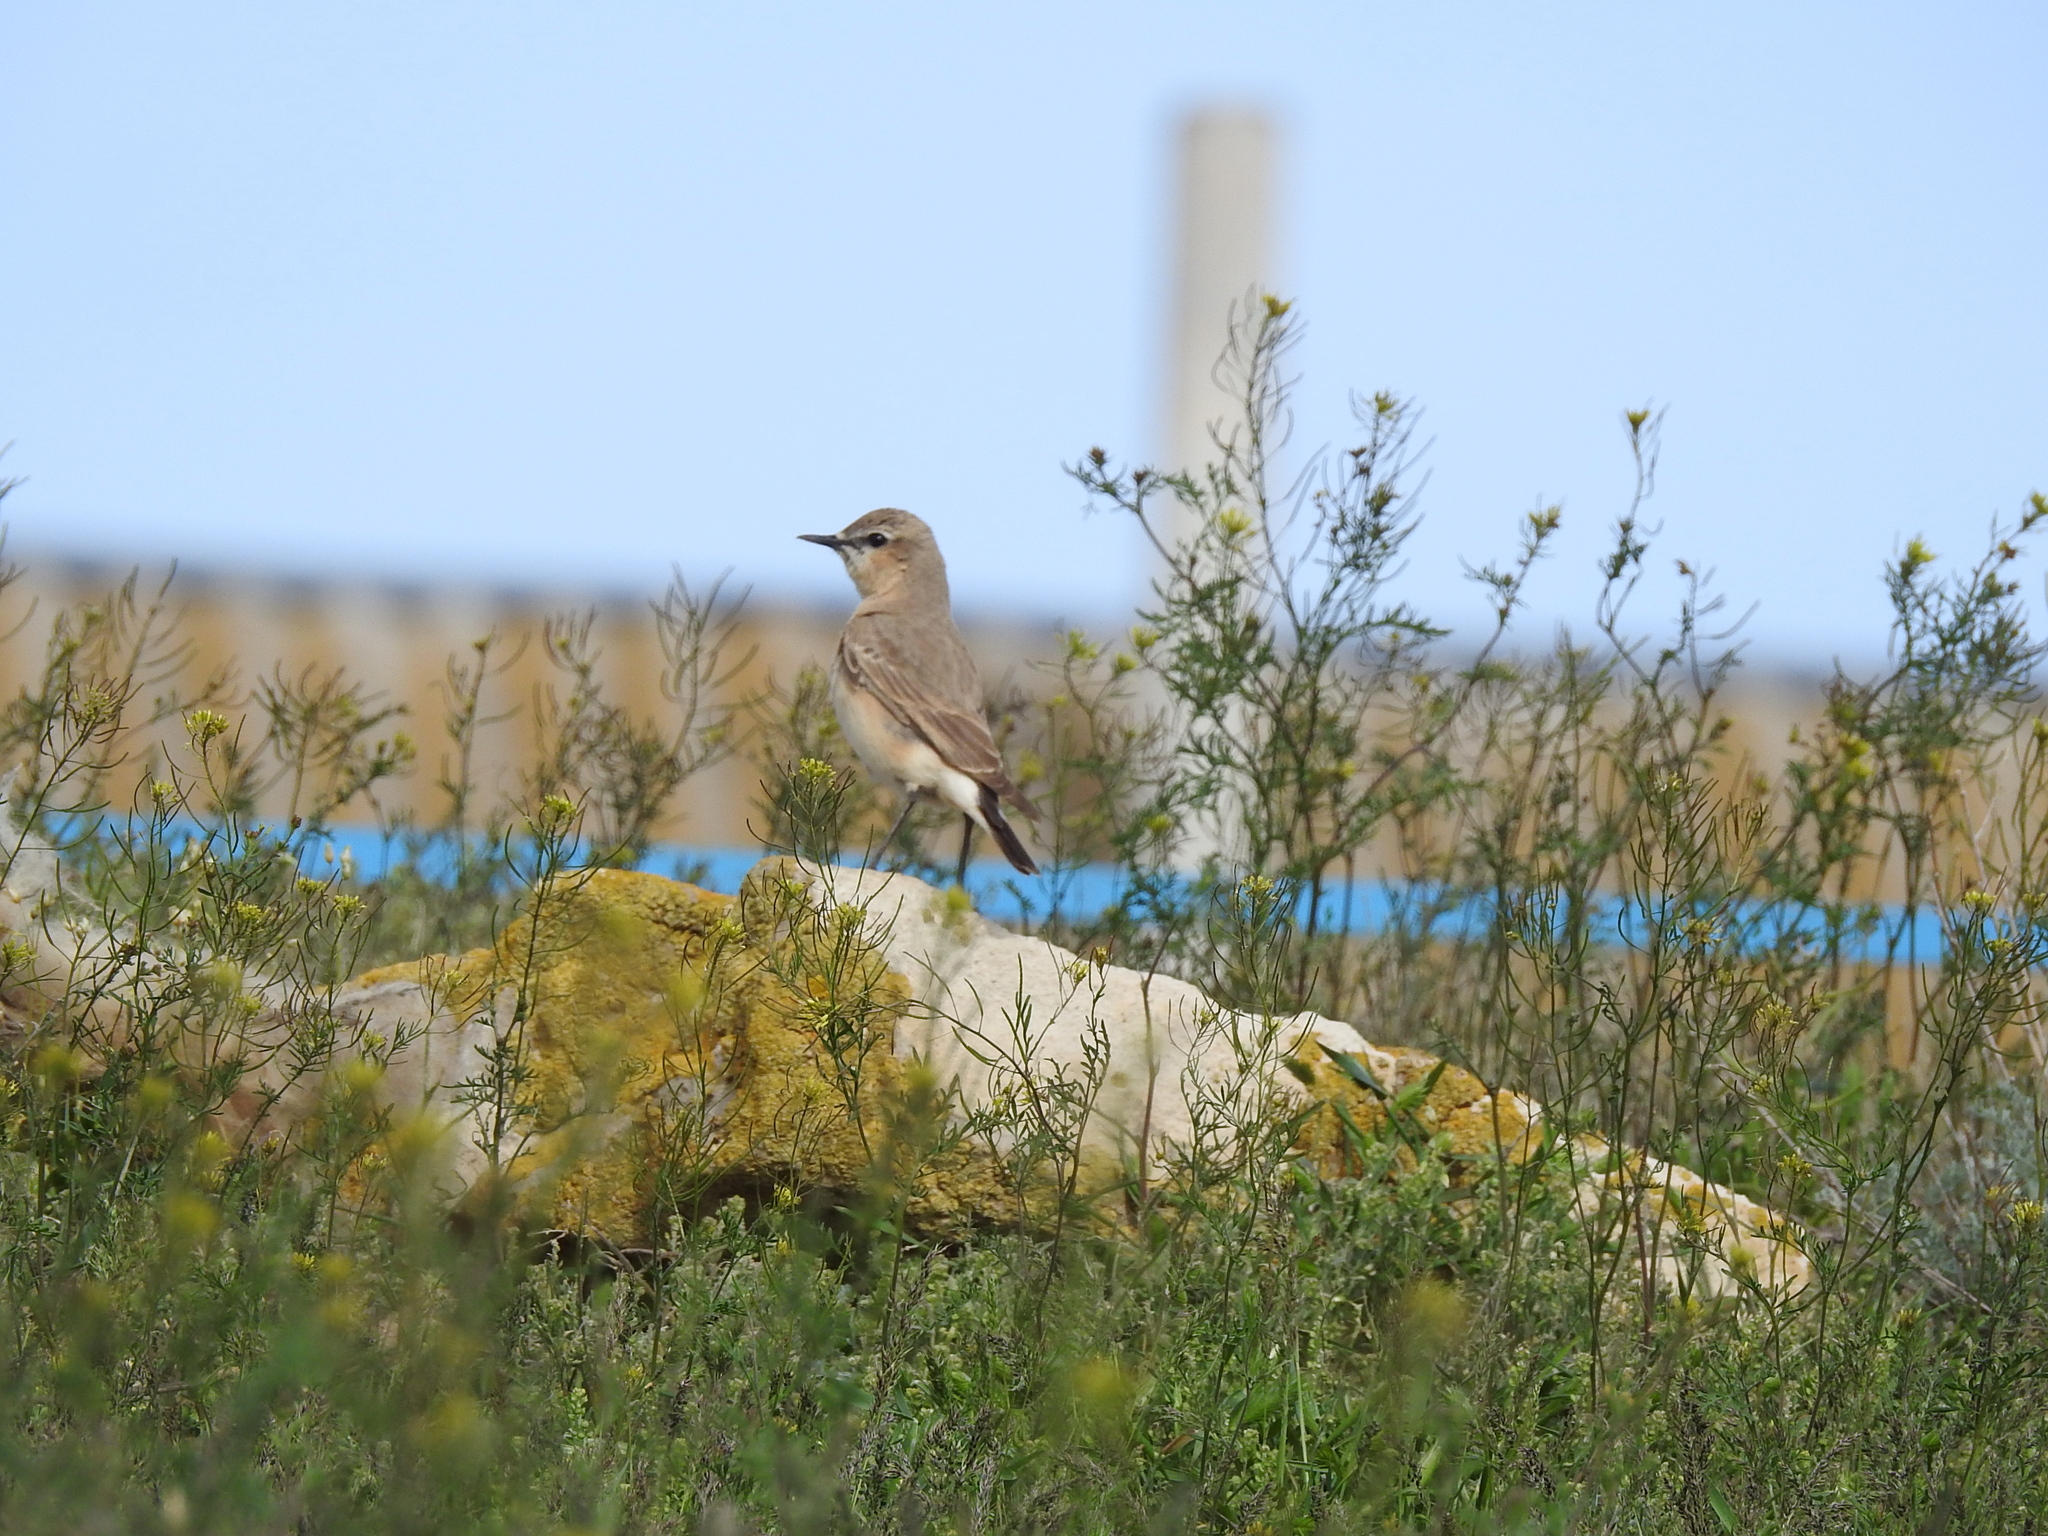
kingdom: Animalia
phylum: Chordata
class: Aves
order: Passeriformes
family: Muscicapidae
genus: Oenanthe
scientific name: Oenanthe isabellina
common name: Isabelline wheatear
